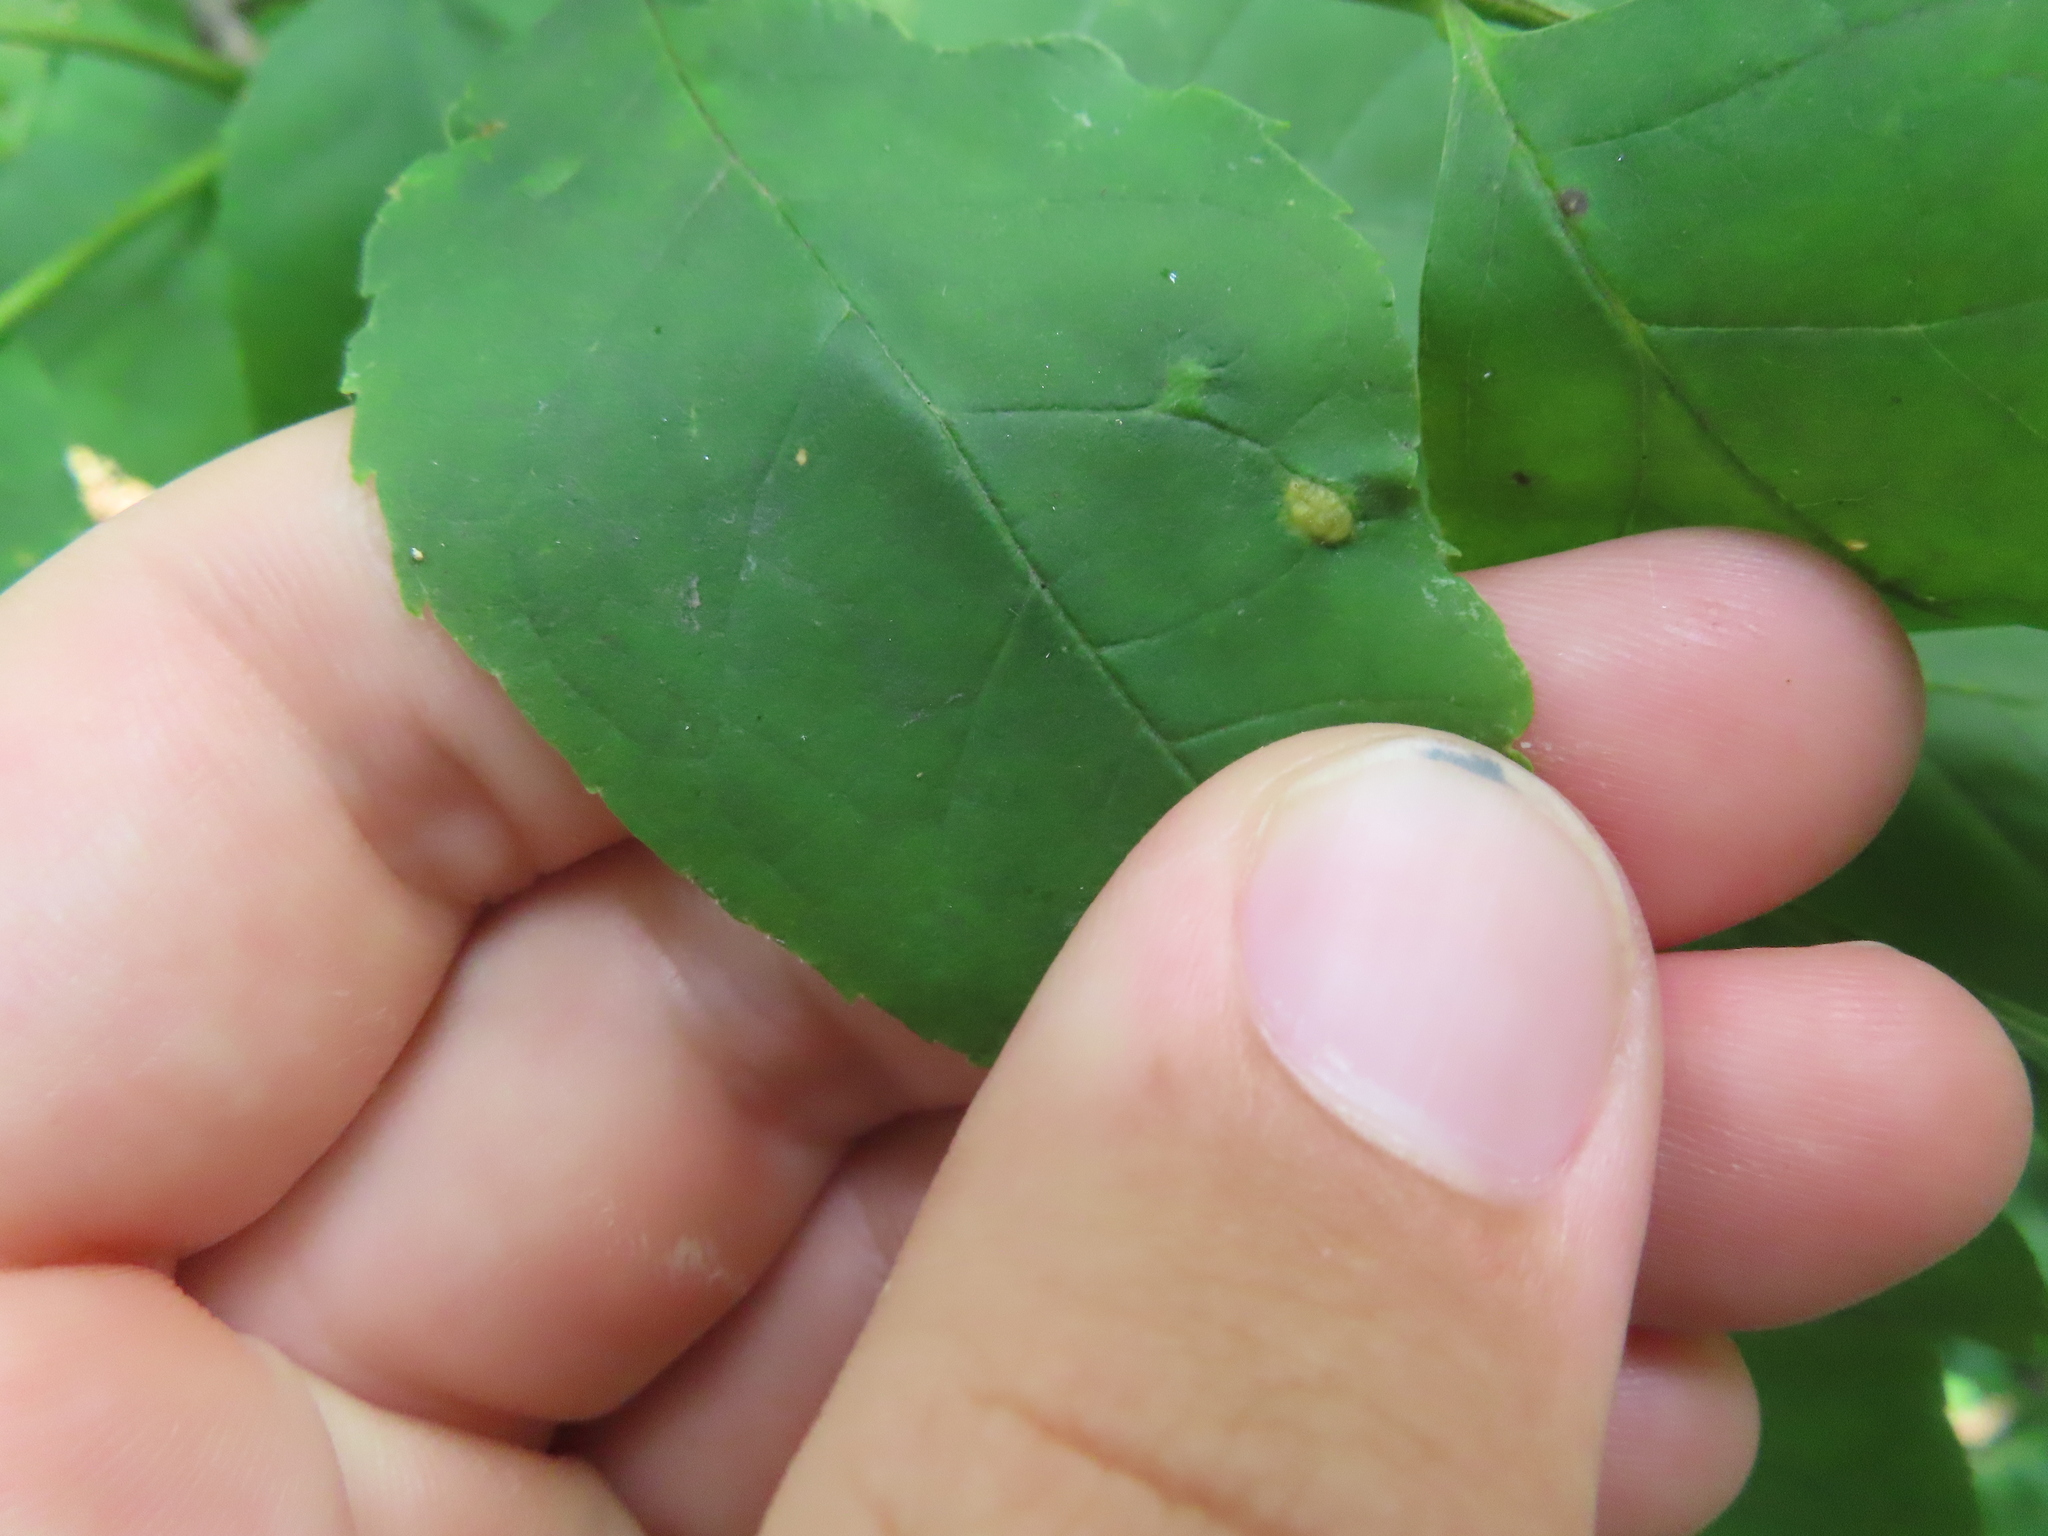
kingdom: Animalia
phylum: Arthropoda
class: Arachnida
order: Trombidiformes
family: Eriophyidae
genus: Aceria
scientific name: Aceria fraxinicola
